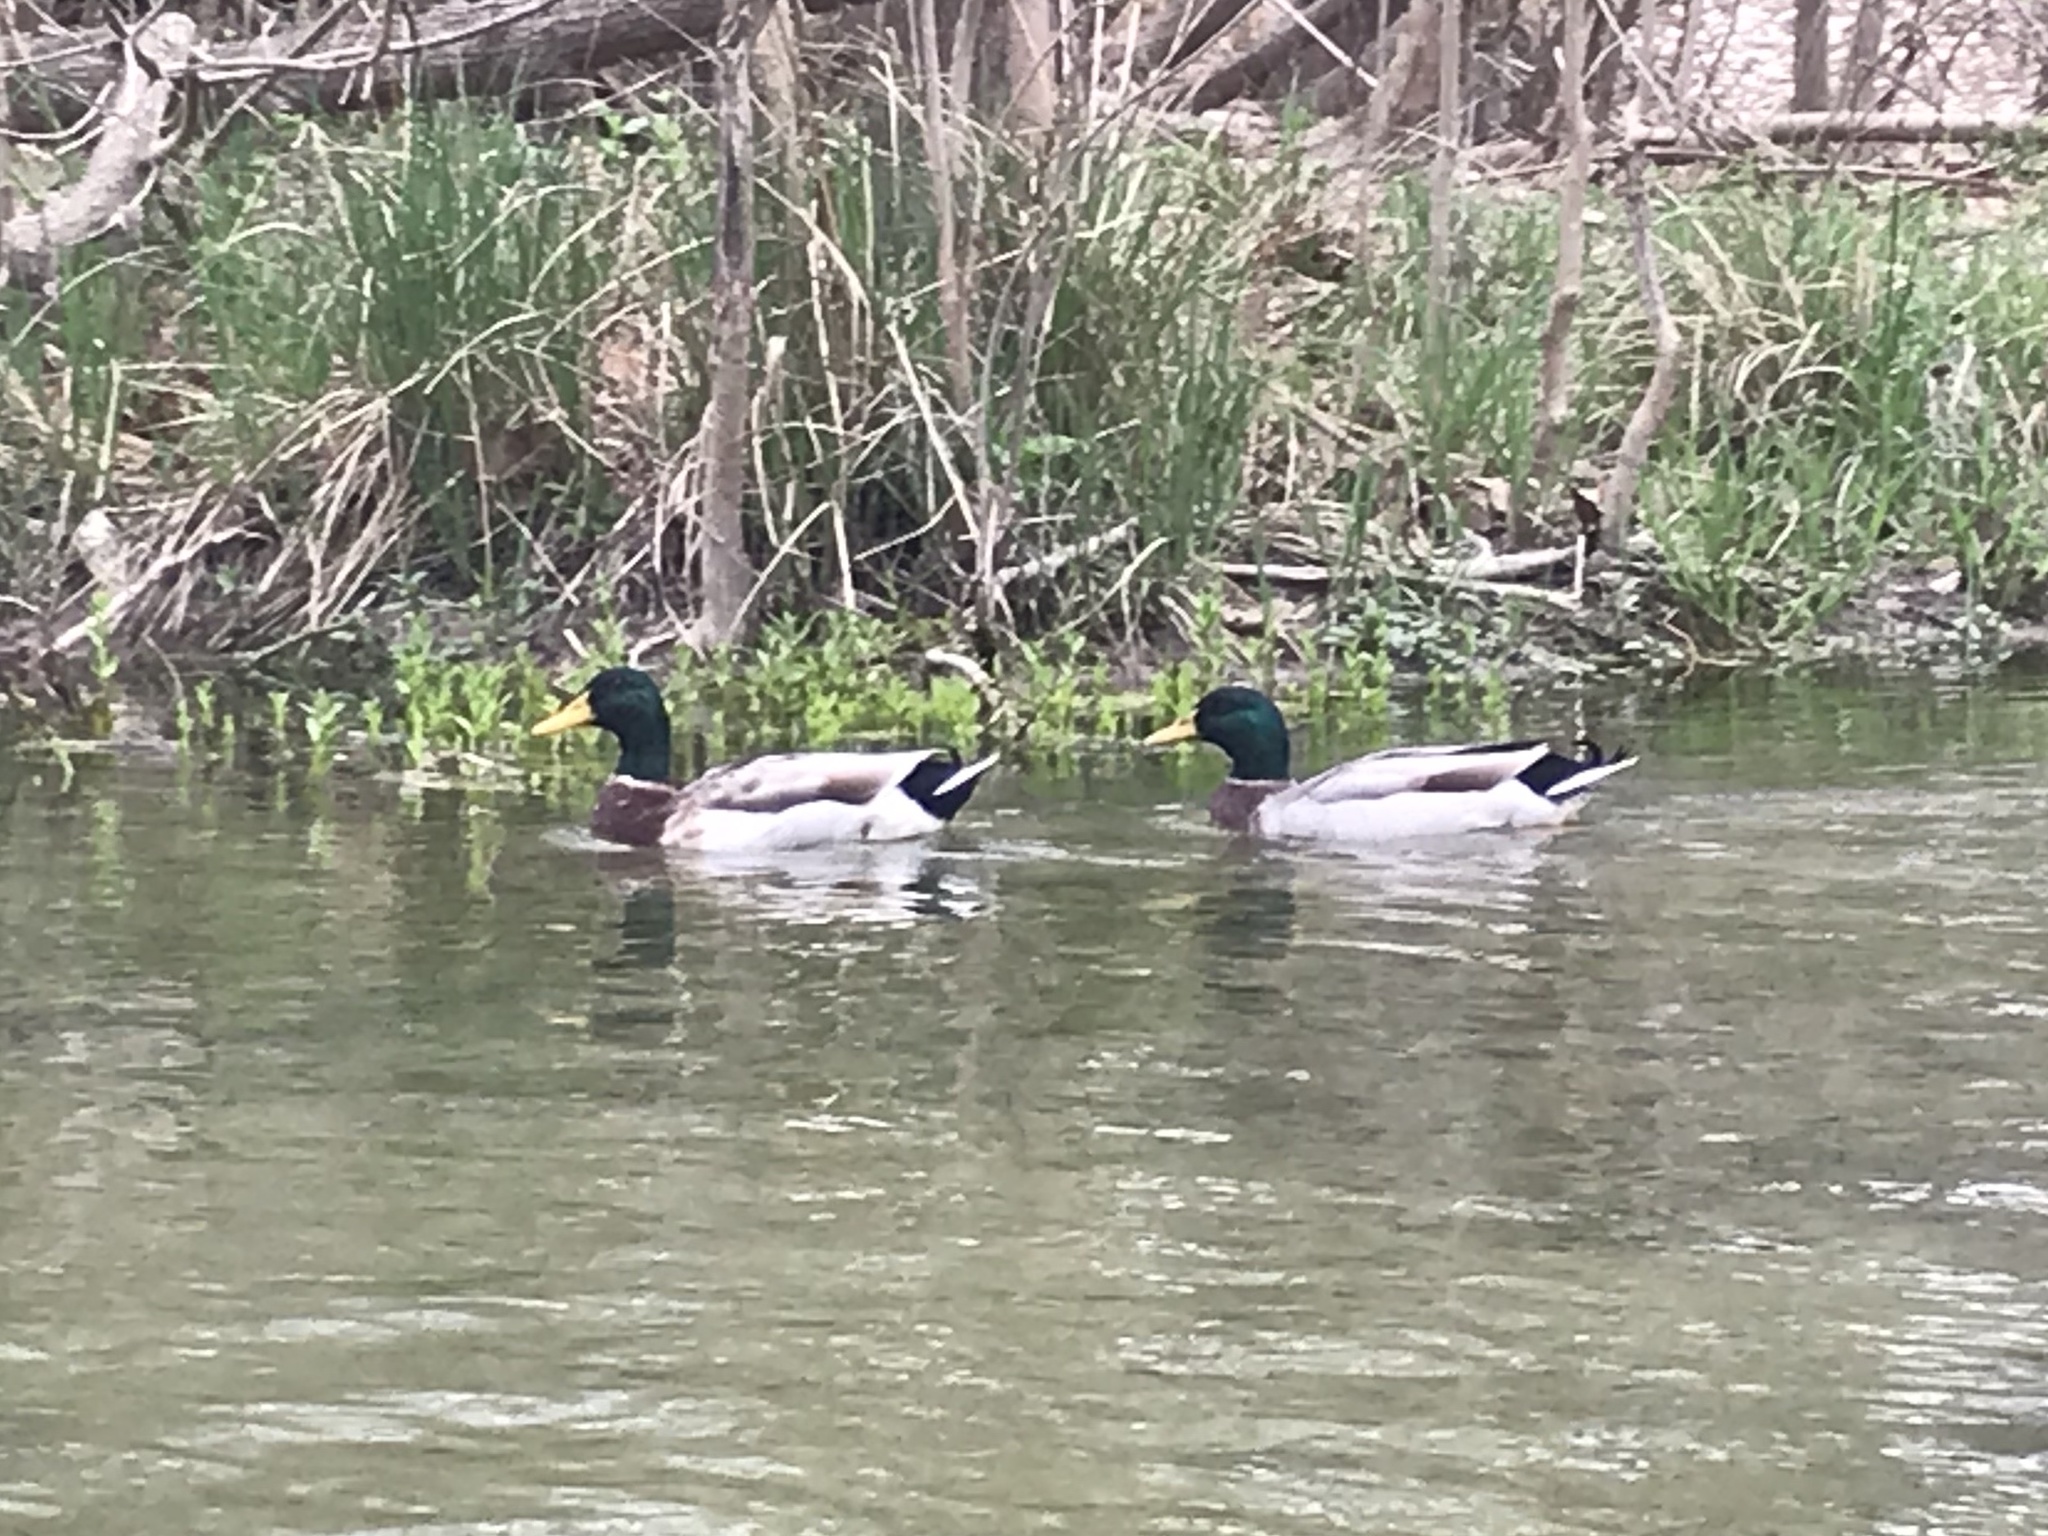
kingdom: Animalia
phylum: Chordata
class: Aves
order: Anseriformes
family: Anatidae
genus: Anas
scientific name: Anas platyrhynchos
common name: Mallard
